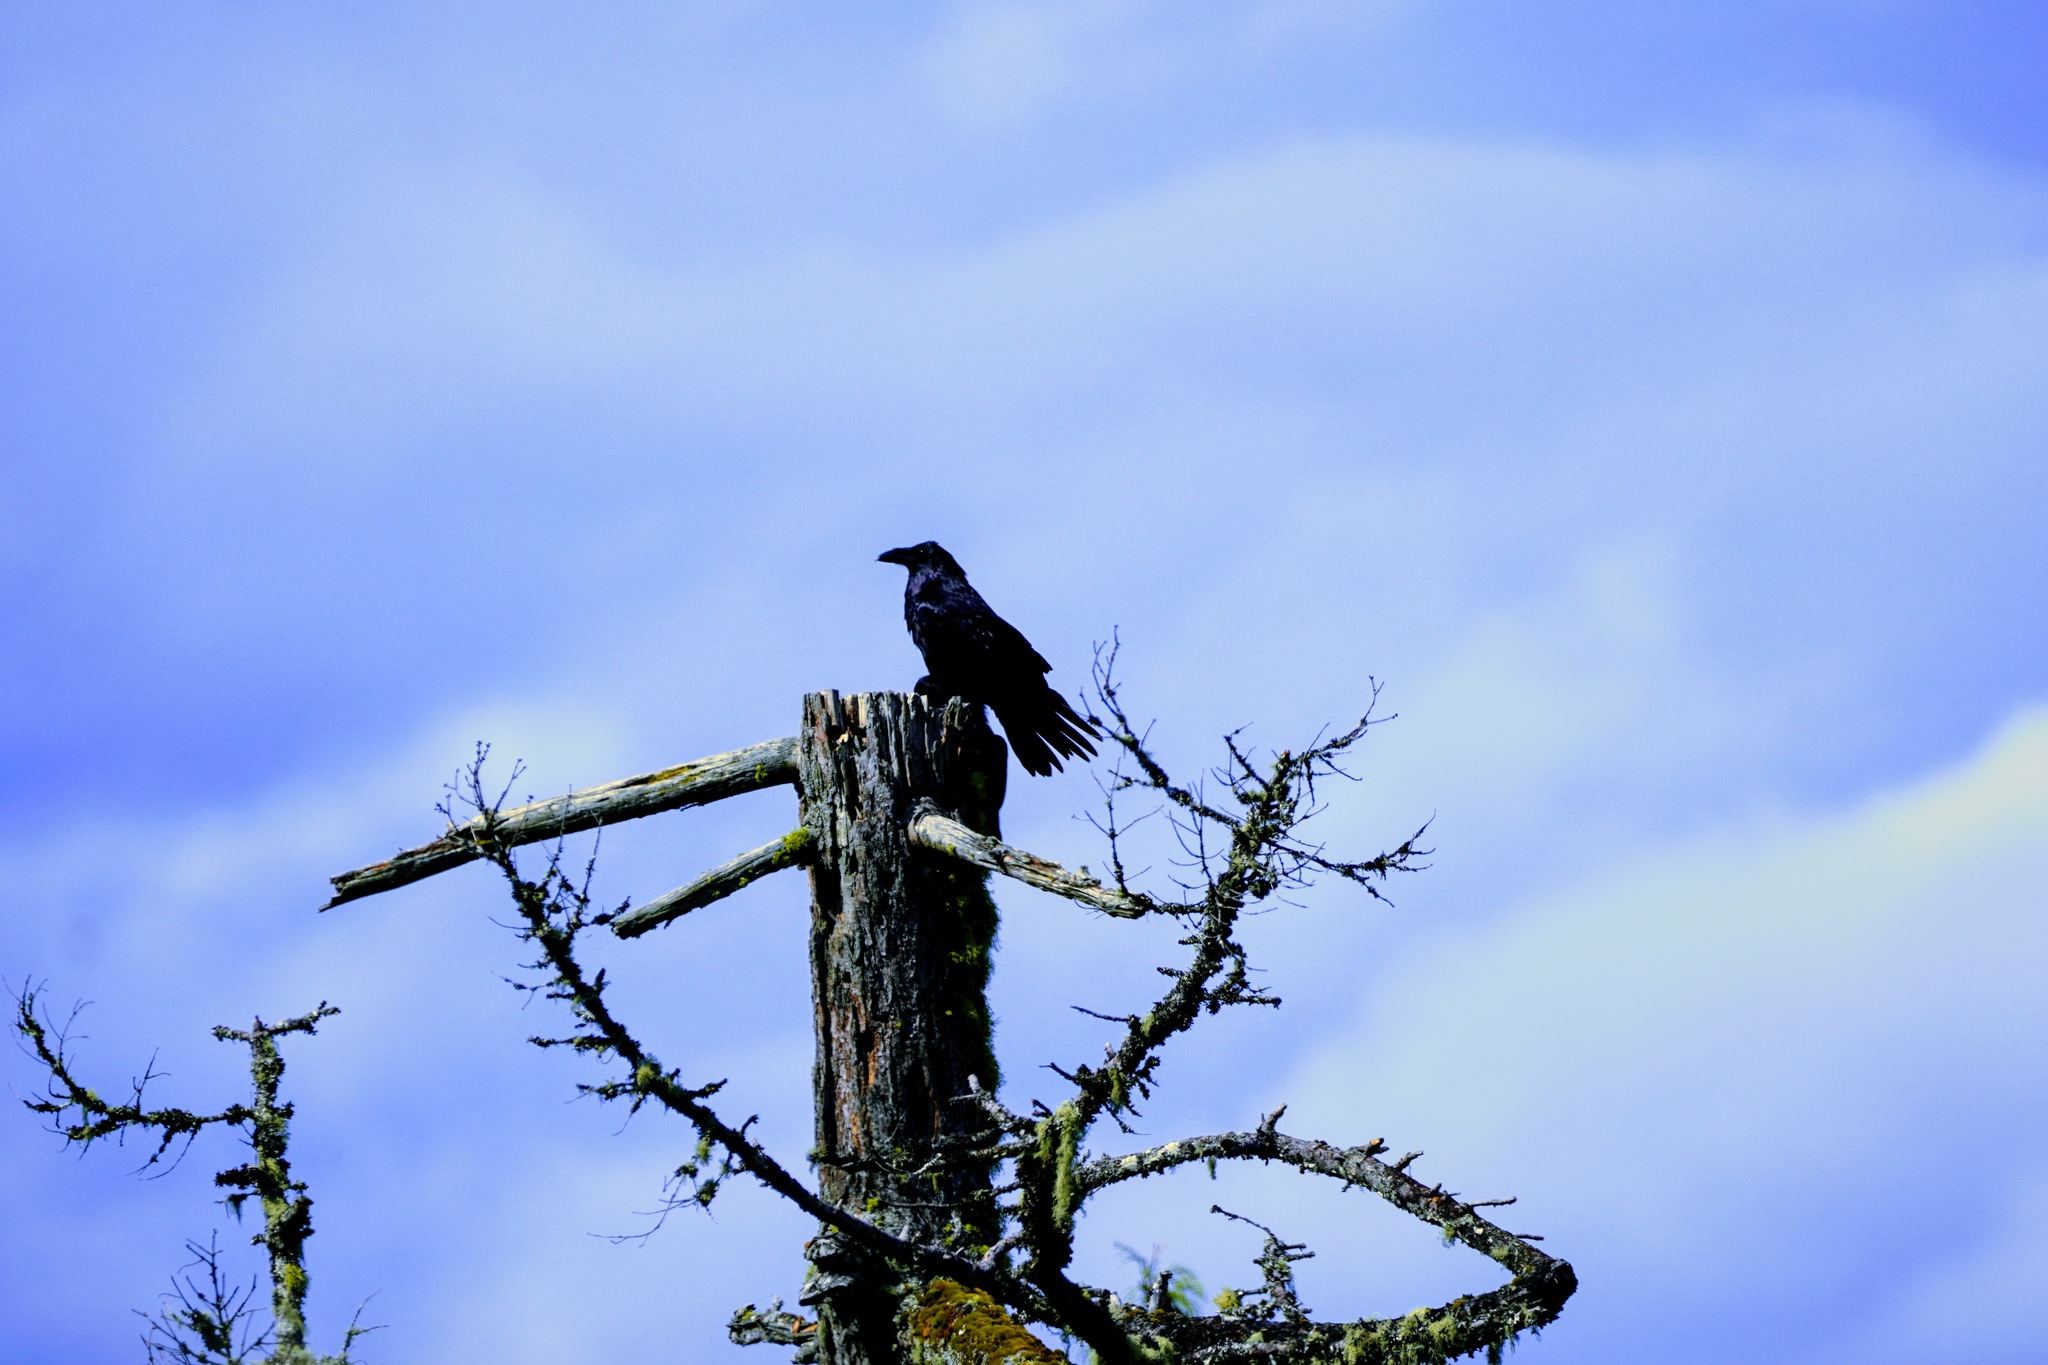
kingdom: Animalia
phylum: Chordata
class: Aves
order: Passeriformes
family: Corvidae
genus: Corvus
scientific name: Corvus corax
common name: Common raven
